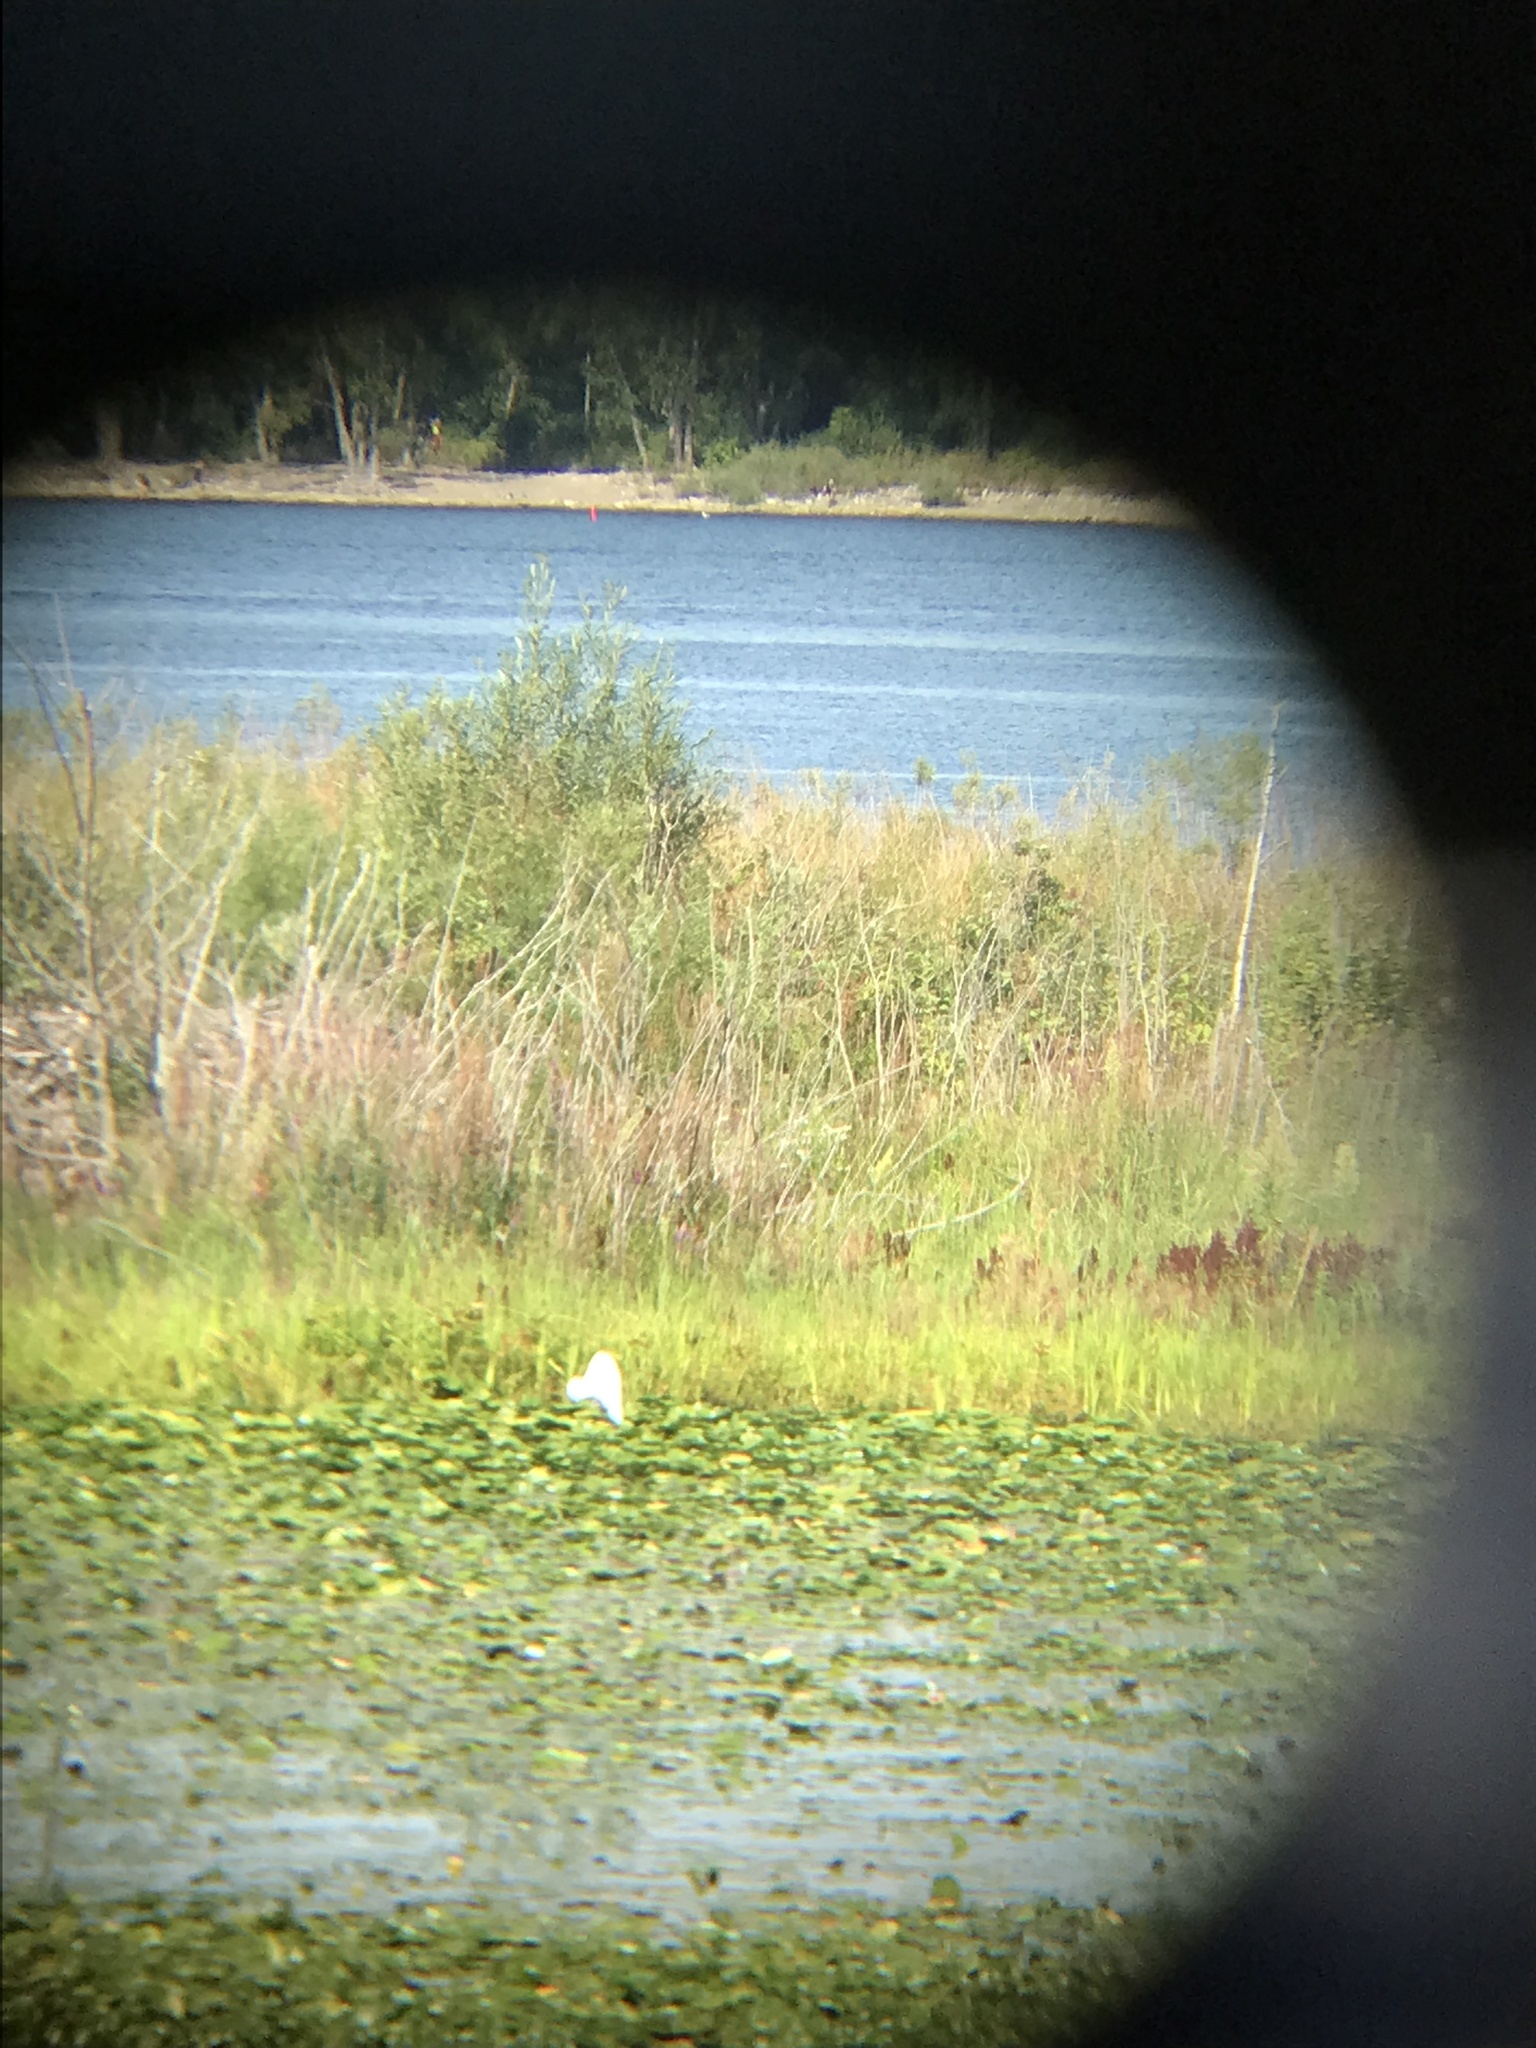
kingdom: Animalia
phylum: Chordata
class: Aves
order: Pelecaniformes
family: Ardeidae
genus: Ardea
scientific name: Ardea alba
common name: Great egret
